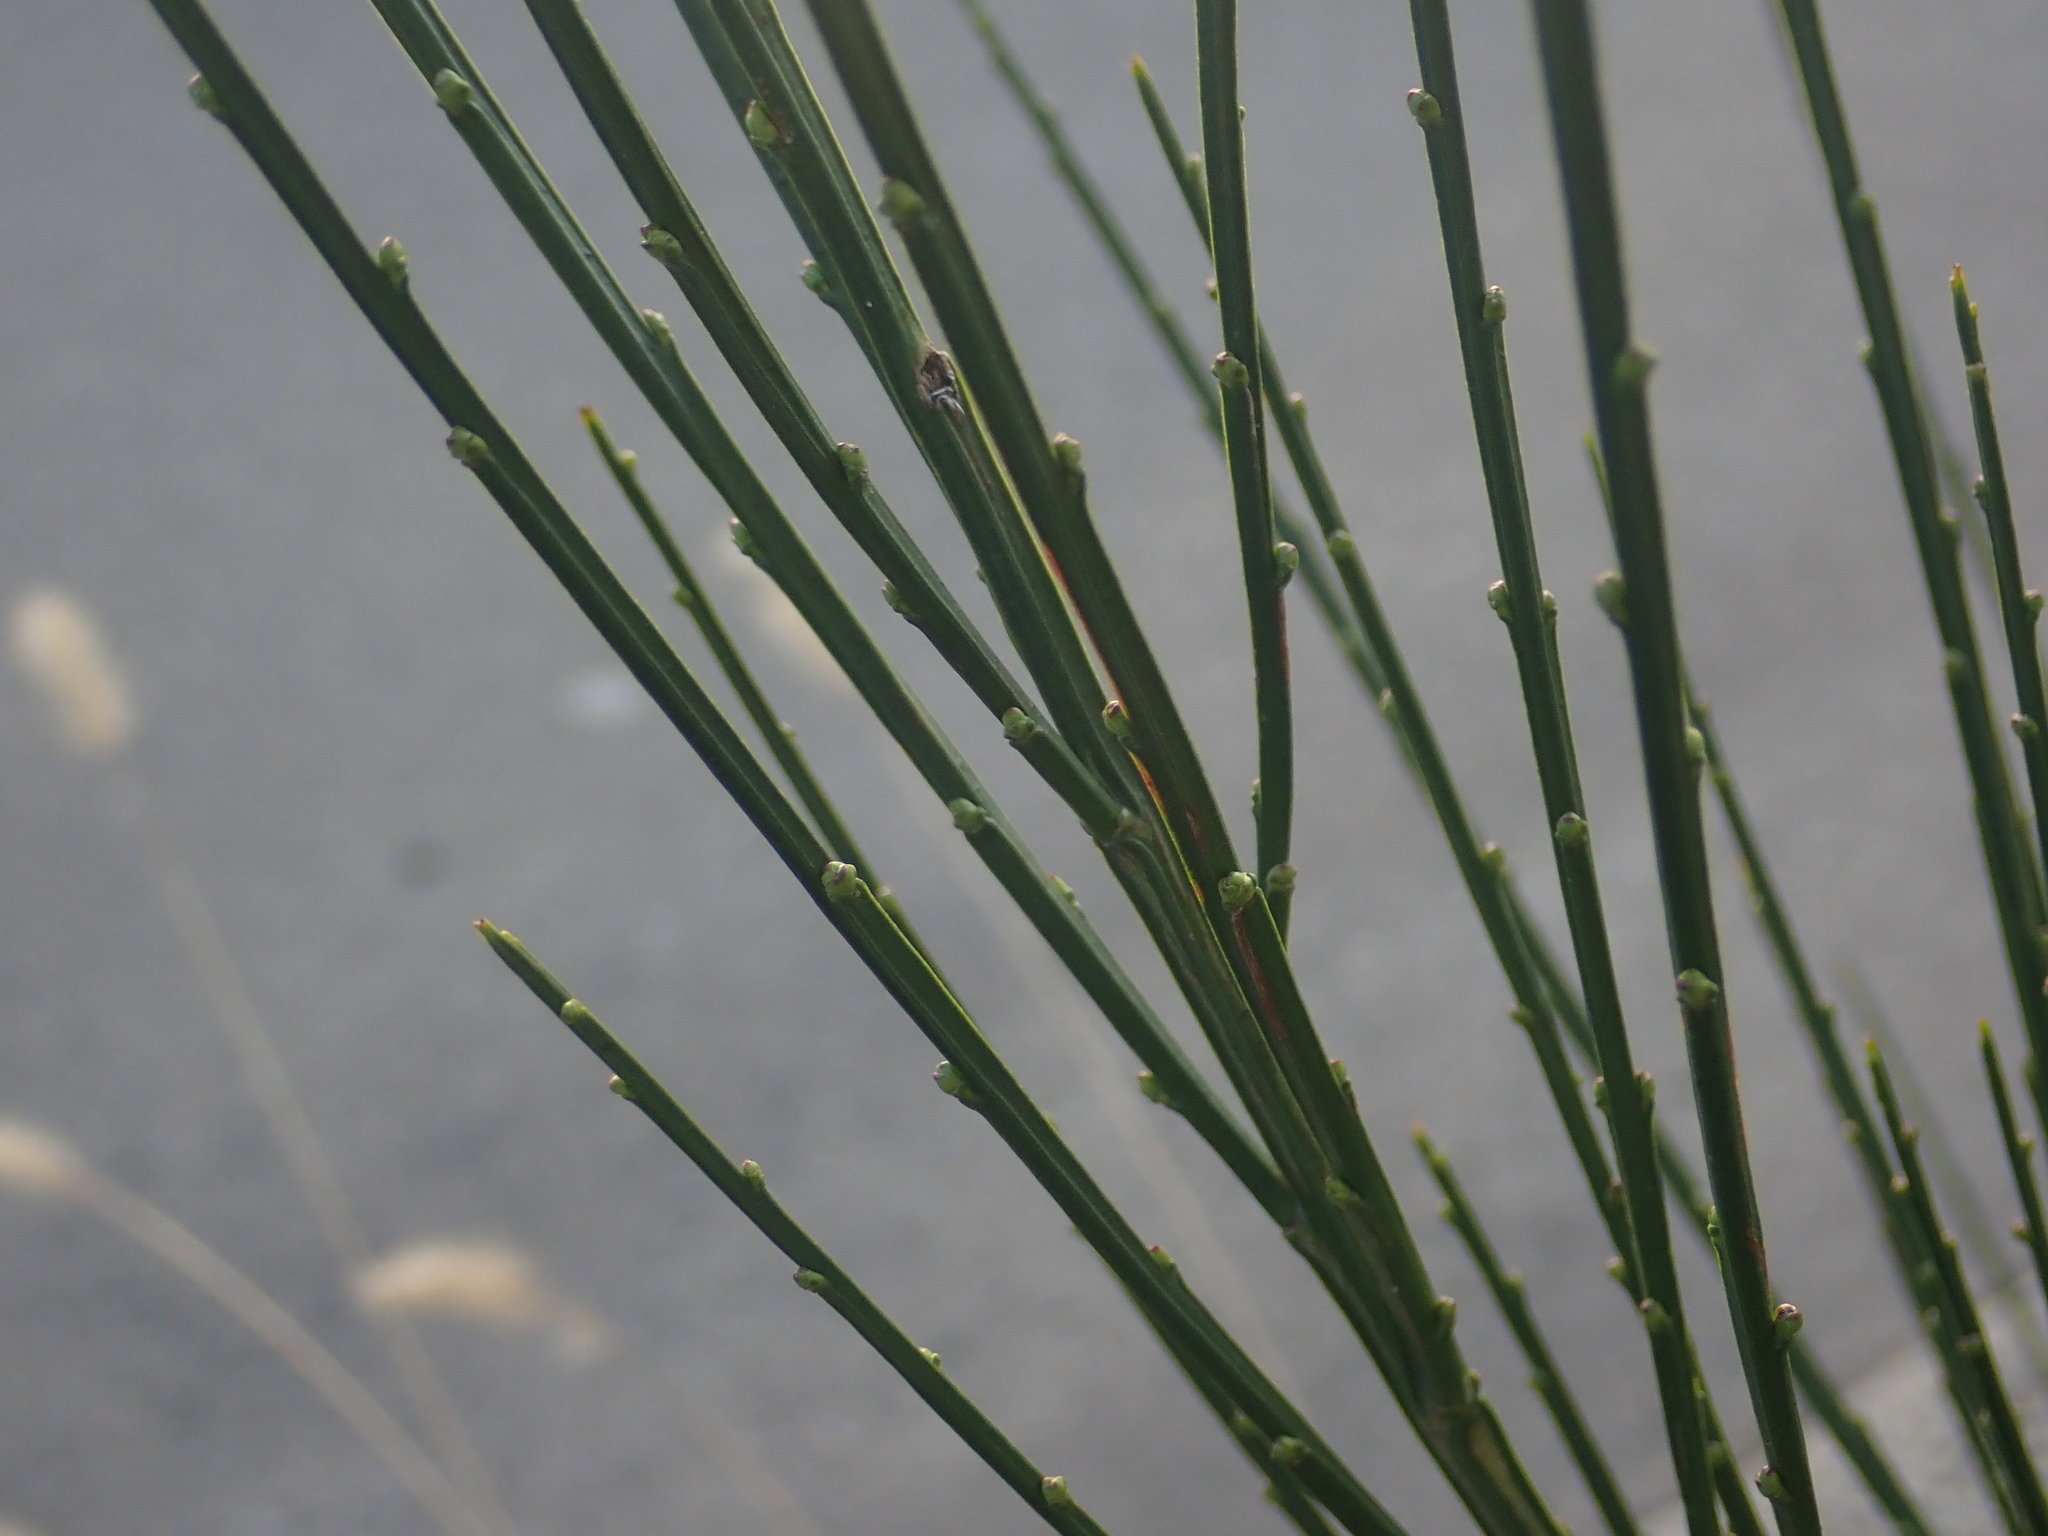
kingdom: Plantae
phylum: Tracheophyta
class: Magnoliopsida
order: Fabales
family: Fabaceae
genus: Cytisus
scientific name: Cytisus scoparius
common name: Scotch broom
